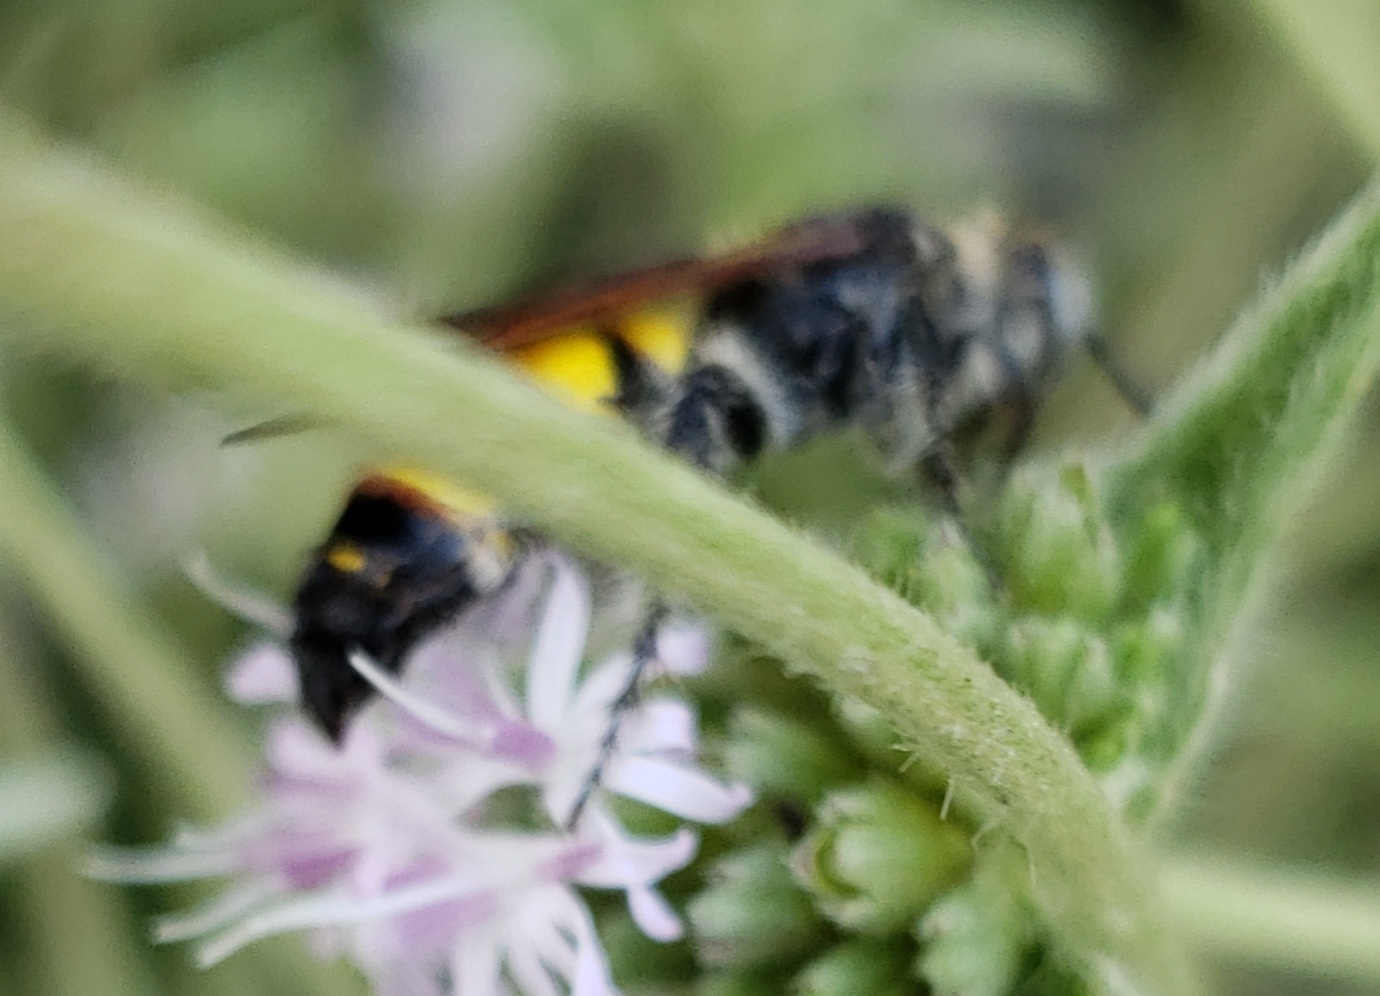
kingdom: Animalia
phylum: Arthropoda
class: Insecta
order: Hymenoptera
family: Scoliidae
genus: Dielis
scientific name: Dielis
